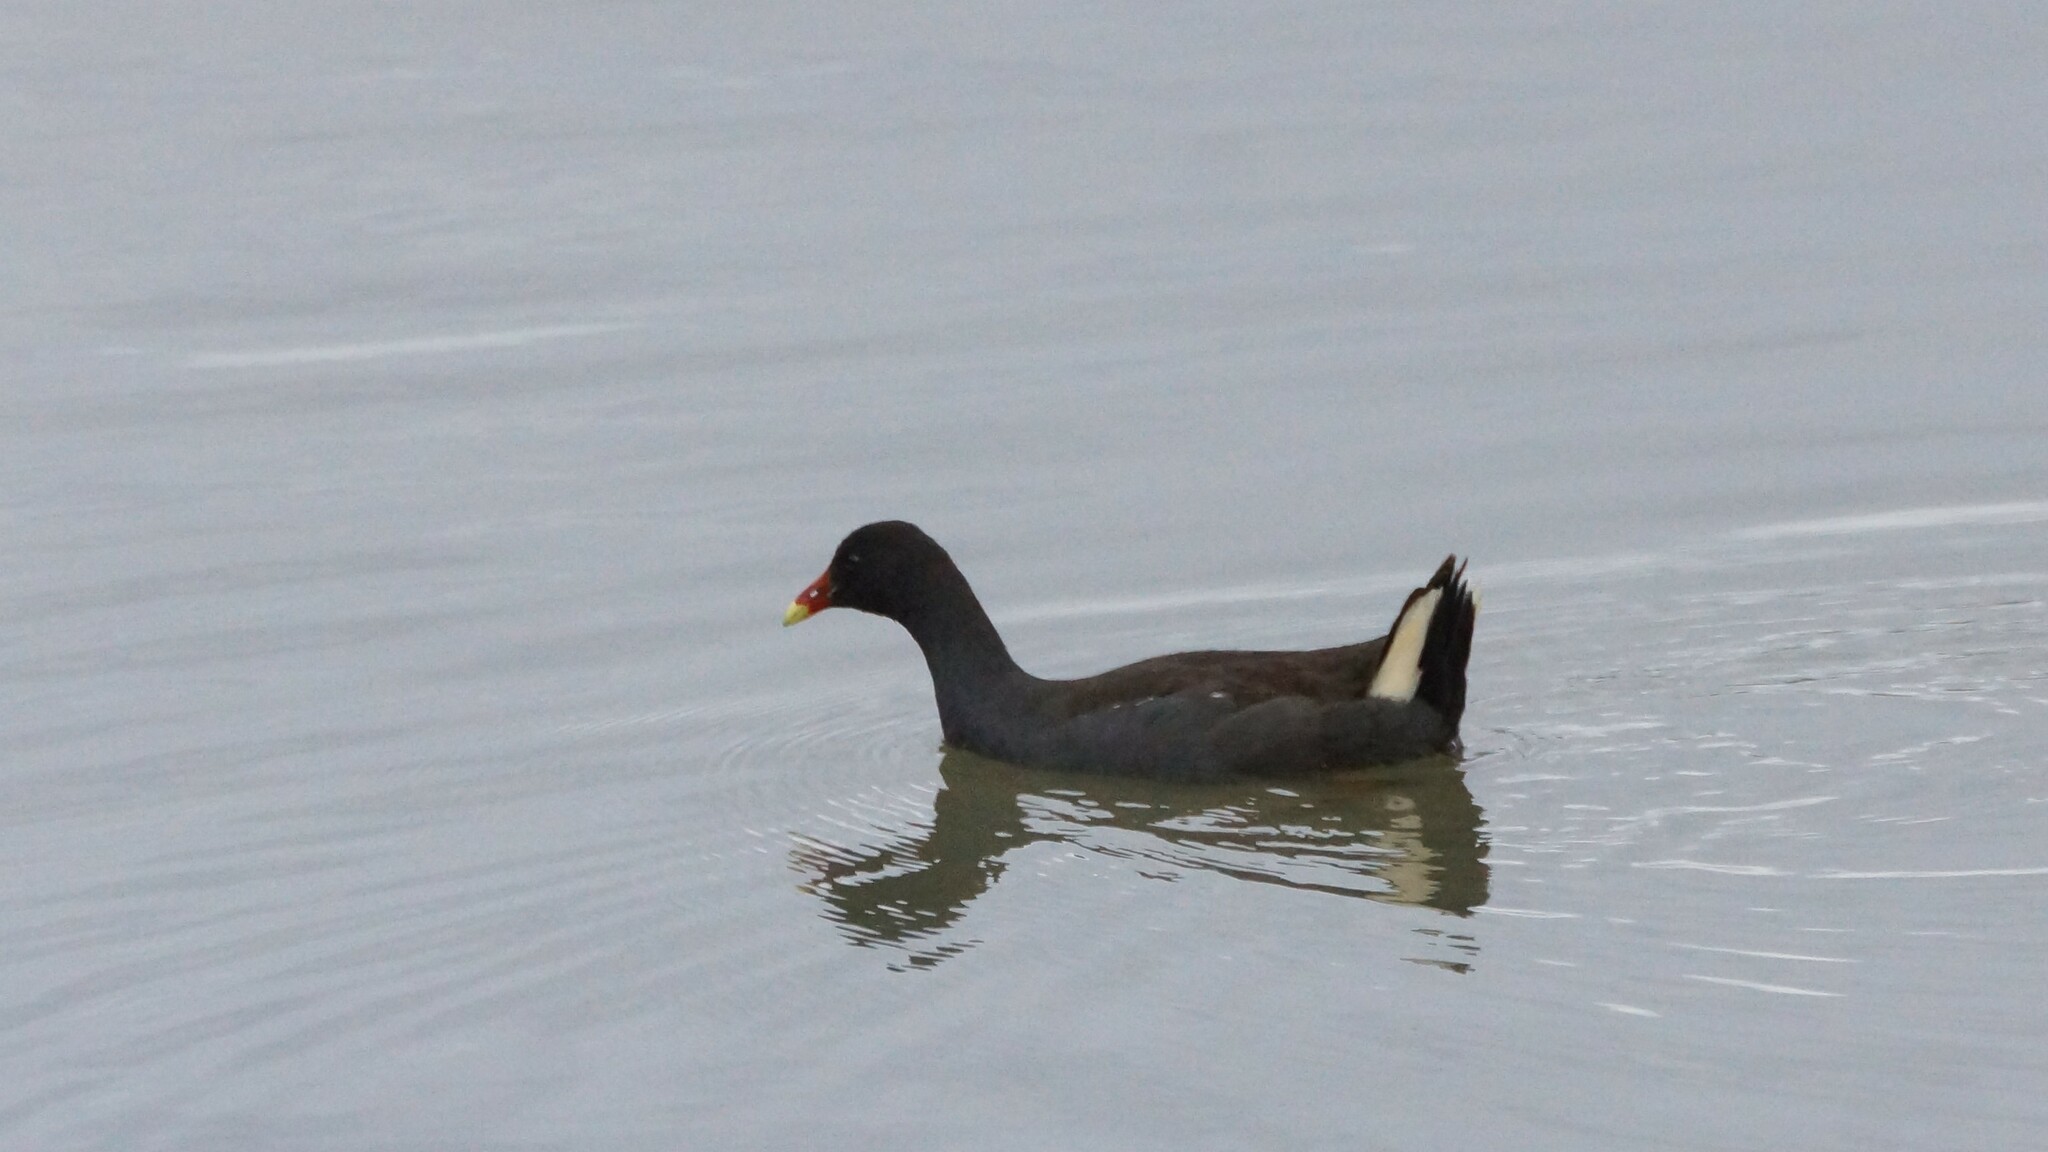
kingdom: Animalia
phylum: Chordata
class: Aves
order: Gruiformes
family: Rallidae
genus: Gallinula
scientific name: Gallinula tenebrosa
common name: Dusky moorhen
